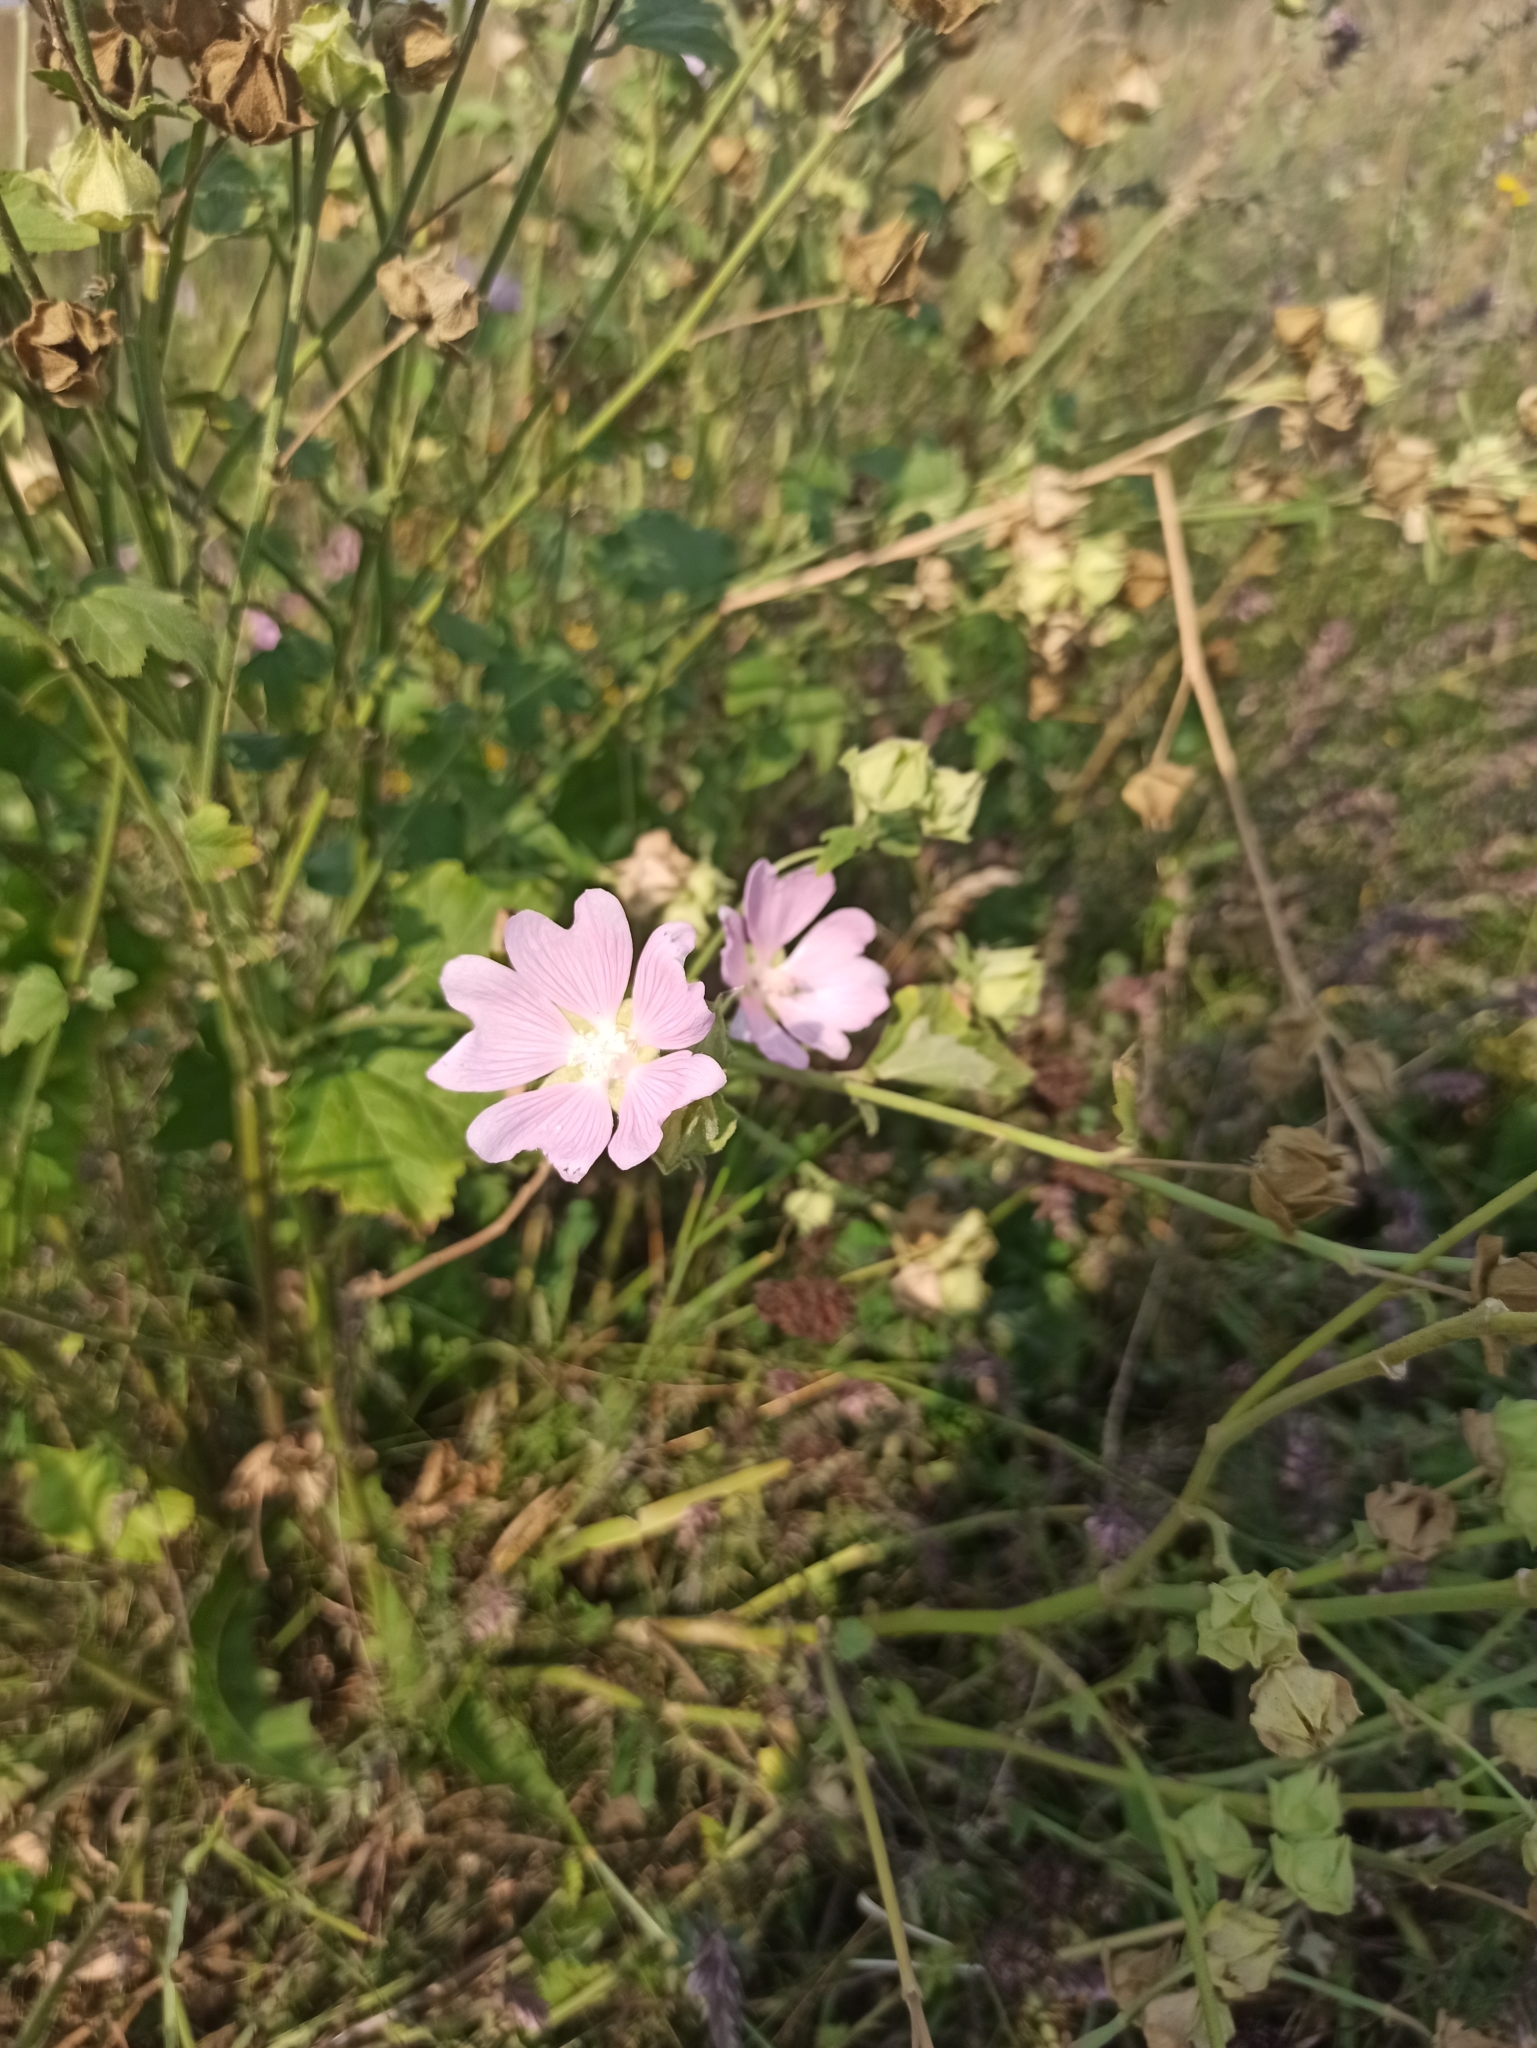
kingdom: Plantae
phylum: Tracheophyta
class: Magnoliopsida
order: Malvales
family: Malvaceae
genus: Malva
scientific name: Malva thuringiaca
